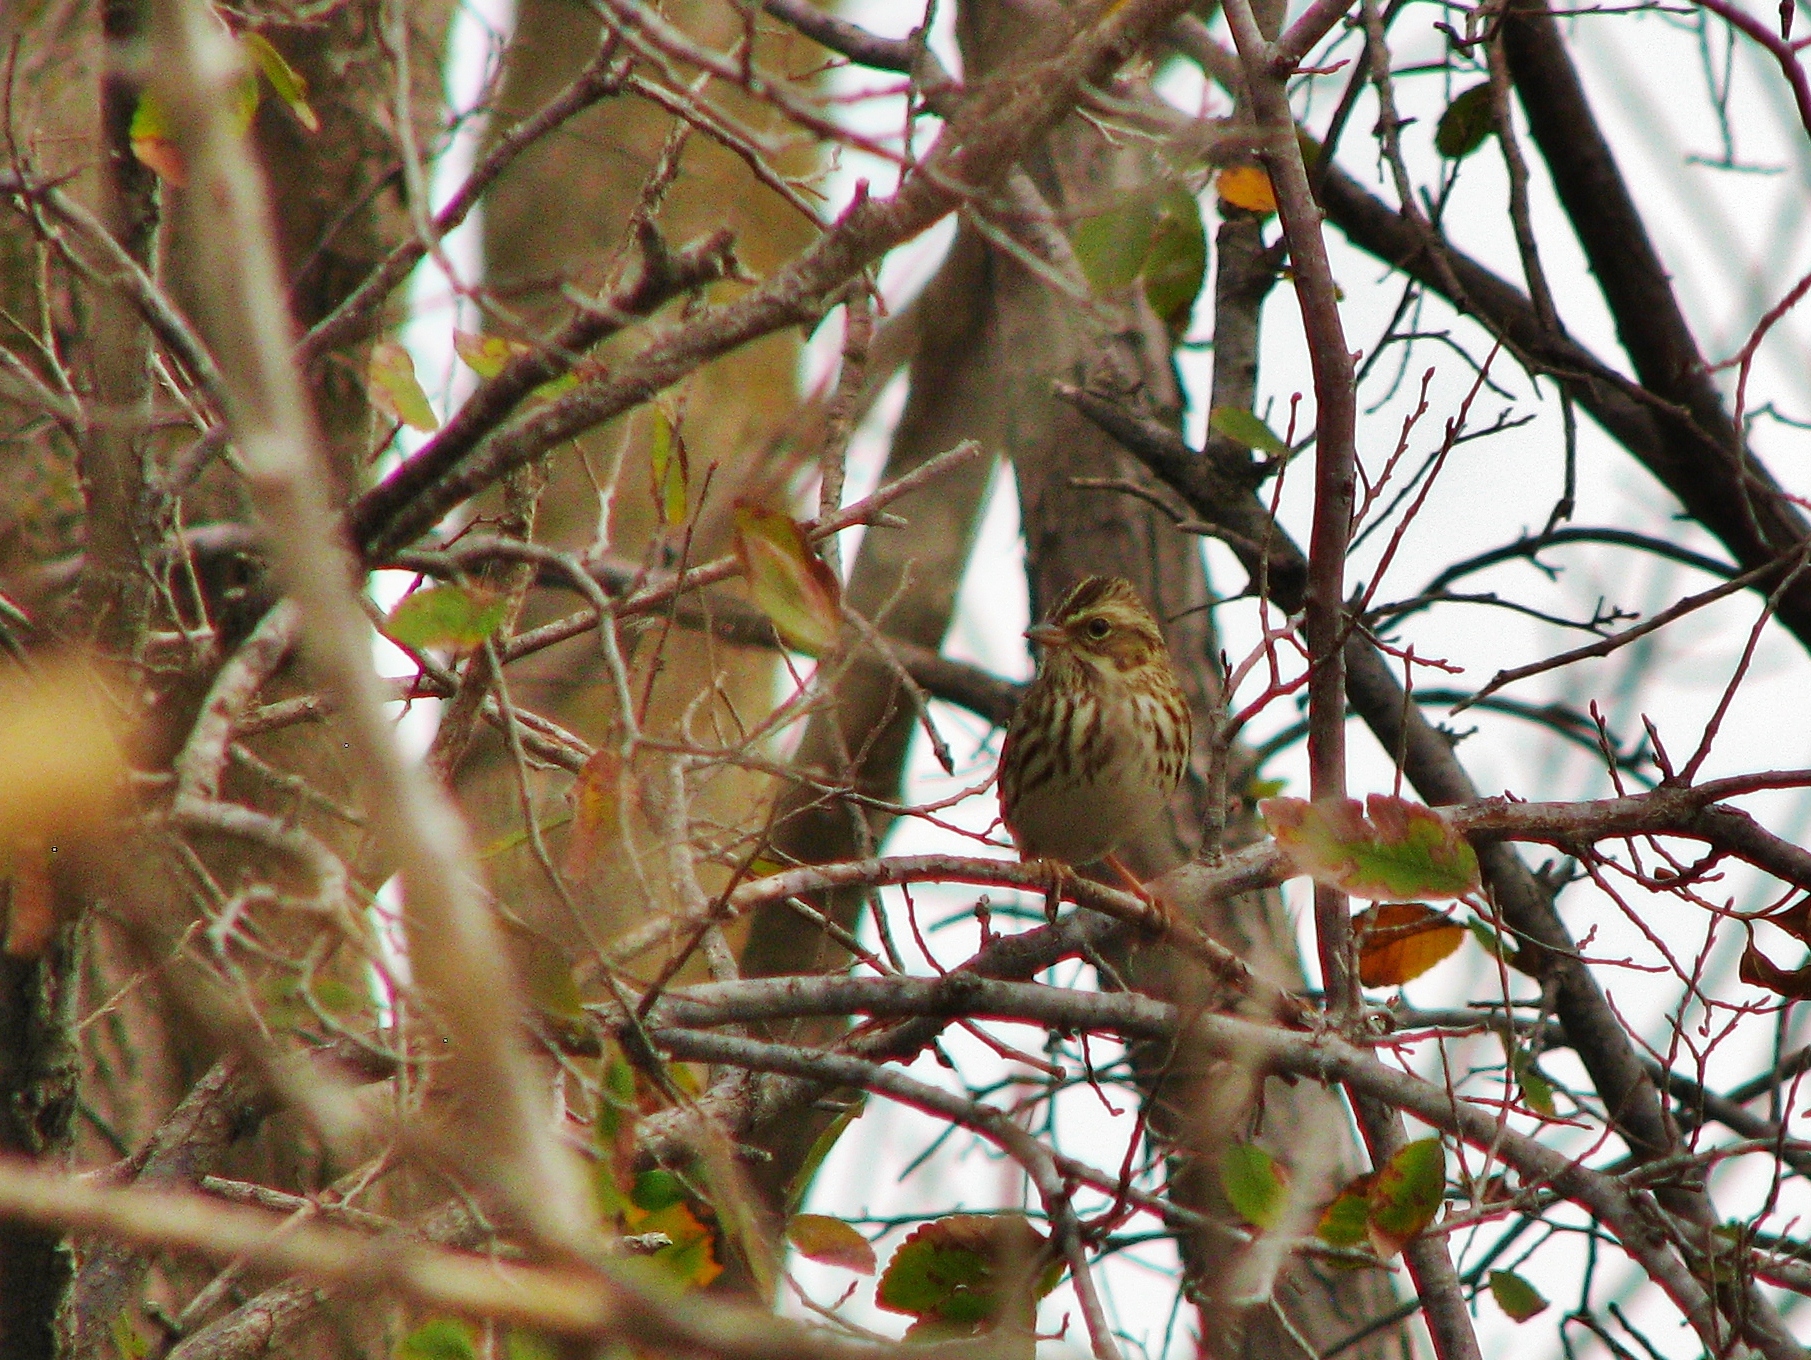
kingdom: Animalia
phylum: Chordata
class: Aves
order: Passeriformes
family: Passerellidae
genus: Passerculus
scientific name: Passerculus sandwichensis
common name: Savannah sparrow
